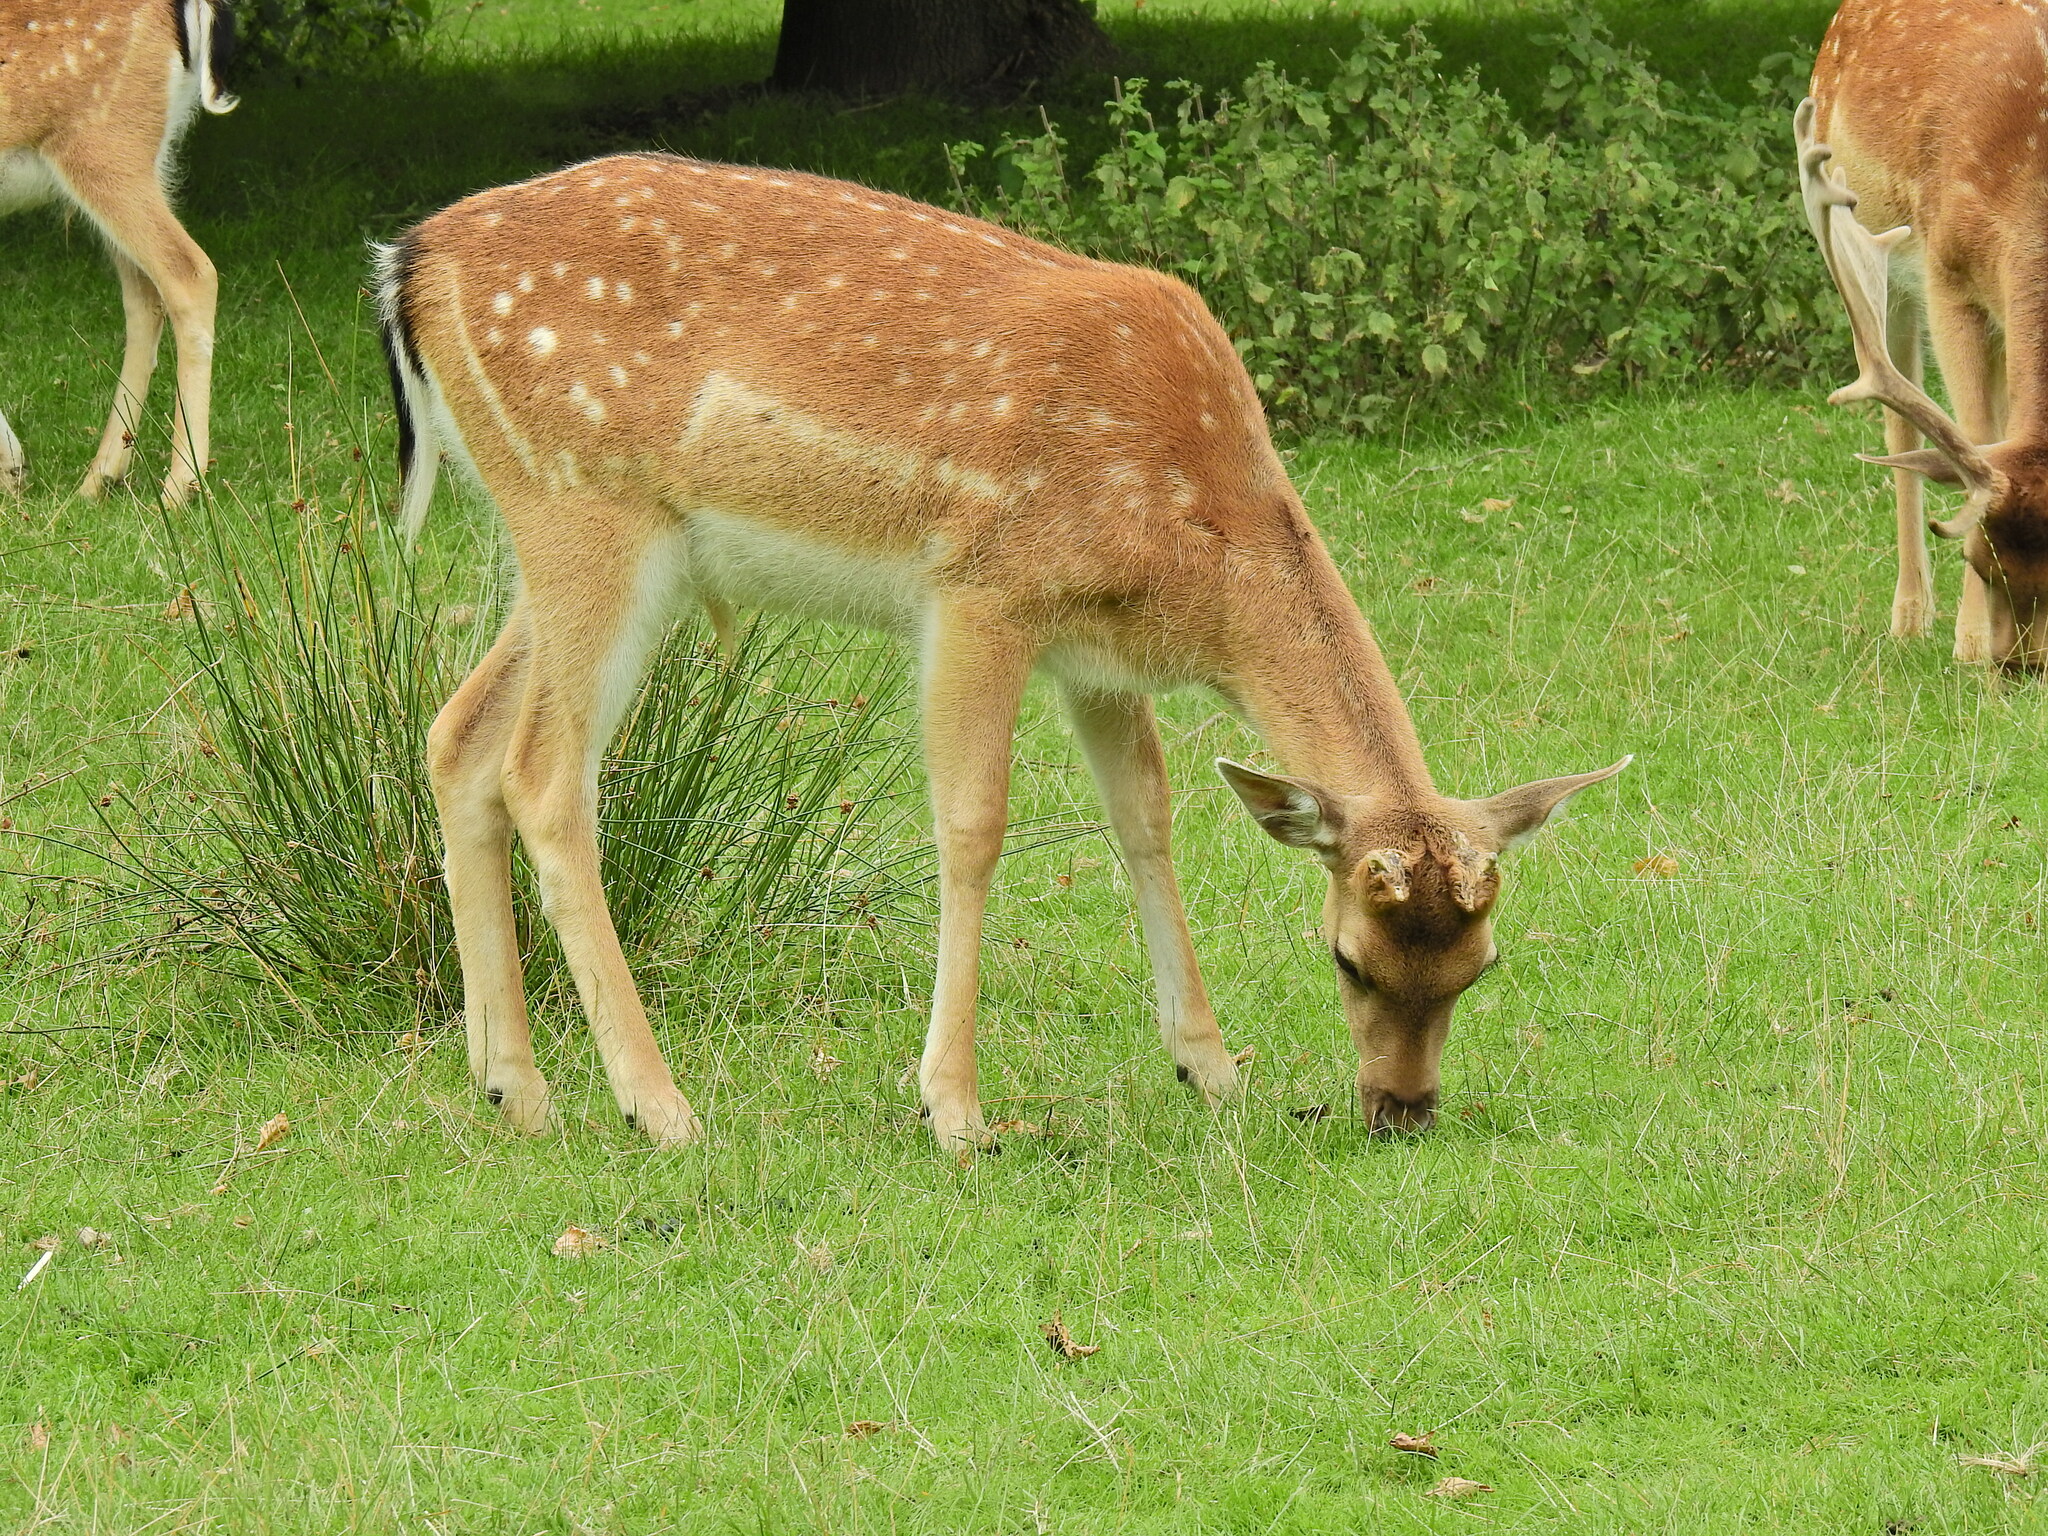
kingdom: Animalia
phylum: Chordata
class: Mammalia
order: Artiodactyla
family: Cervidae
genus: Dama
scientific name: Dama dama
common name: Fallow deer
